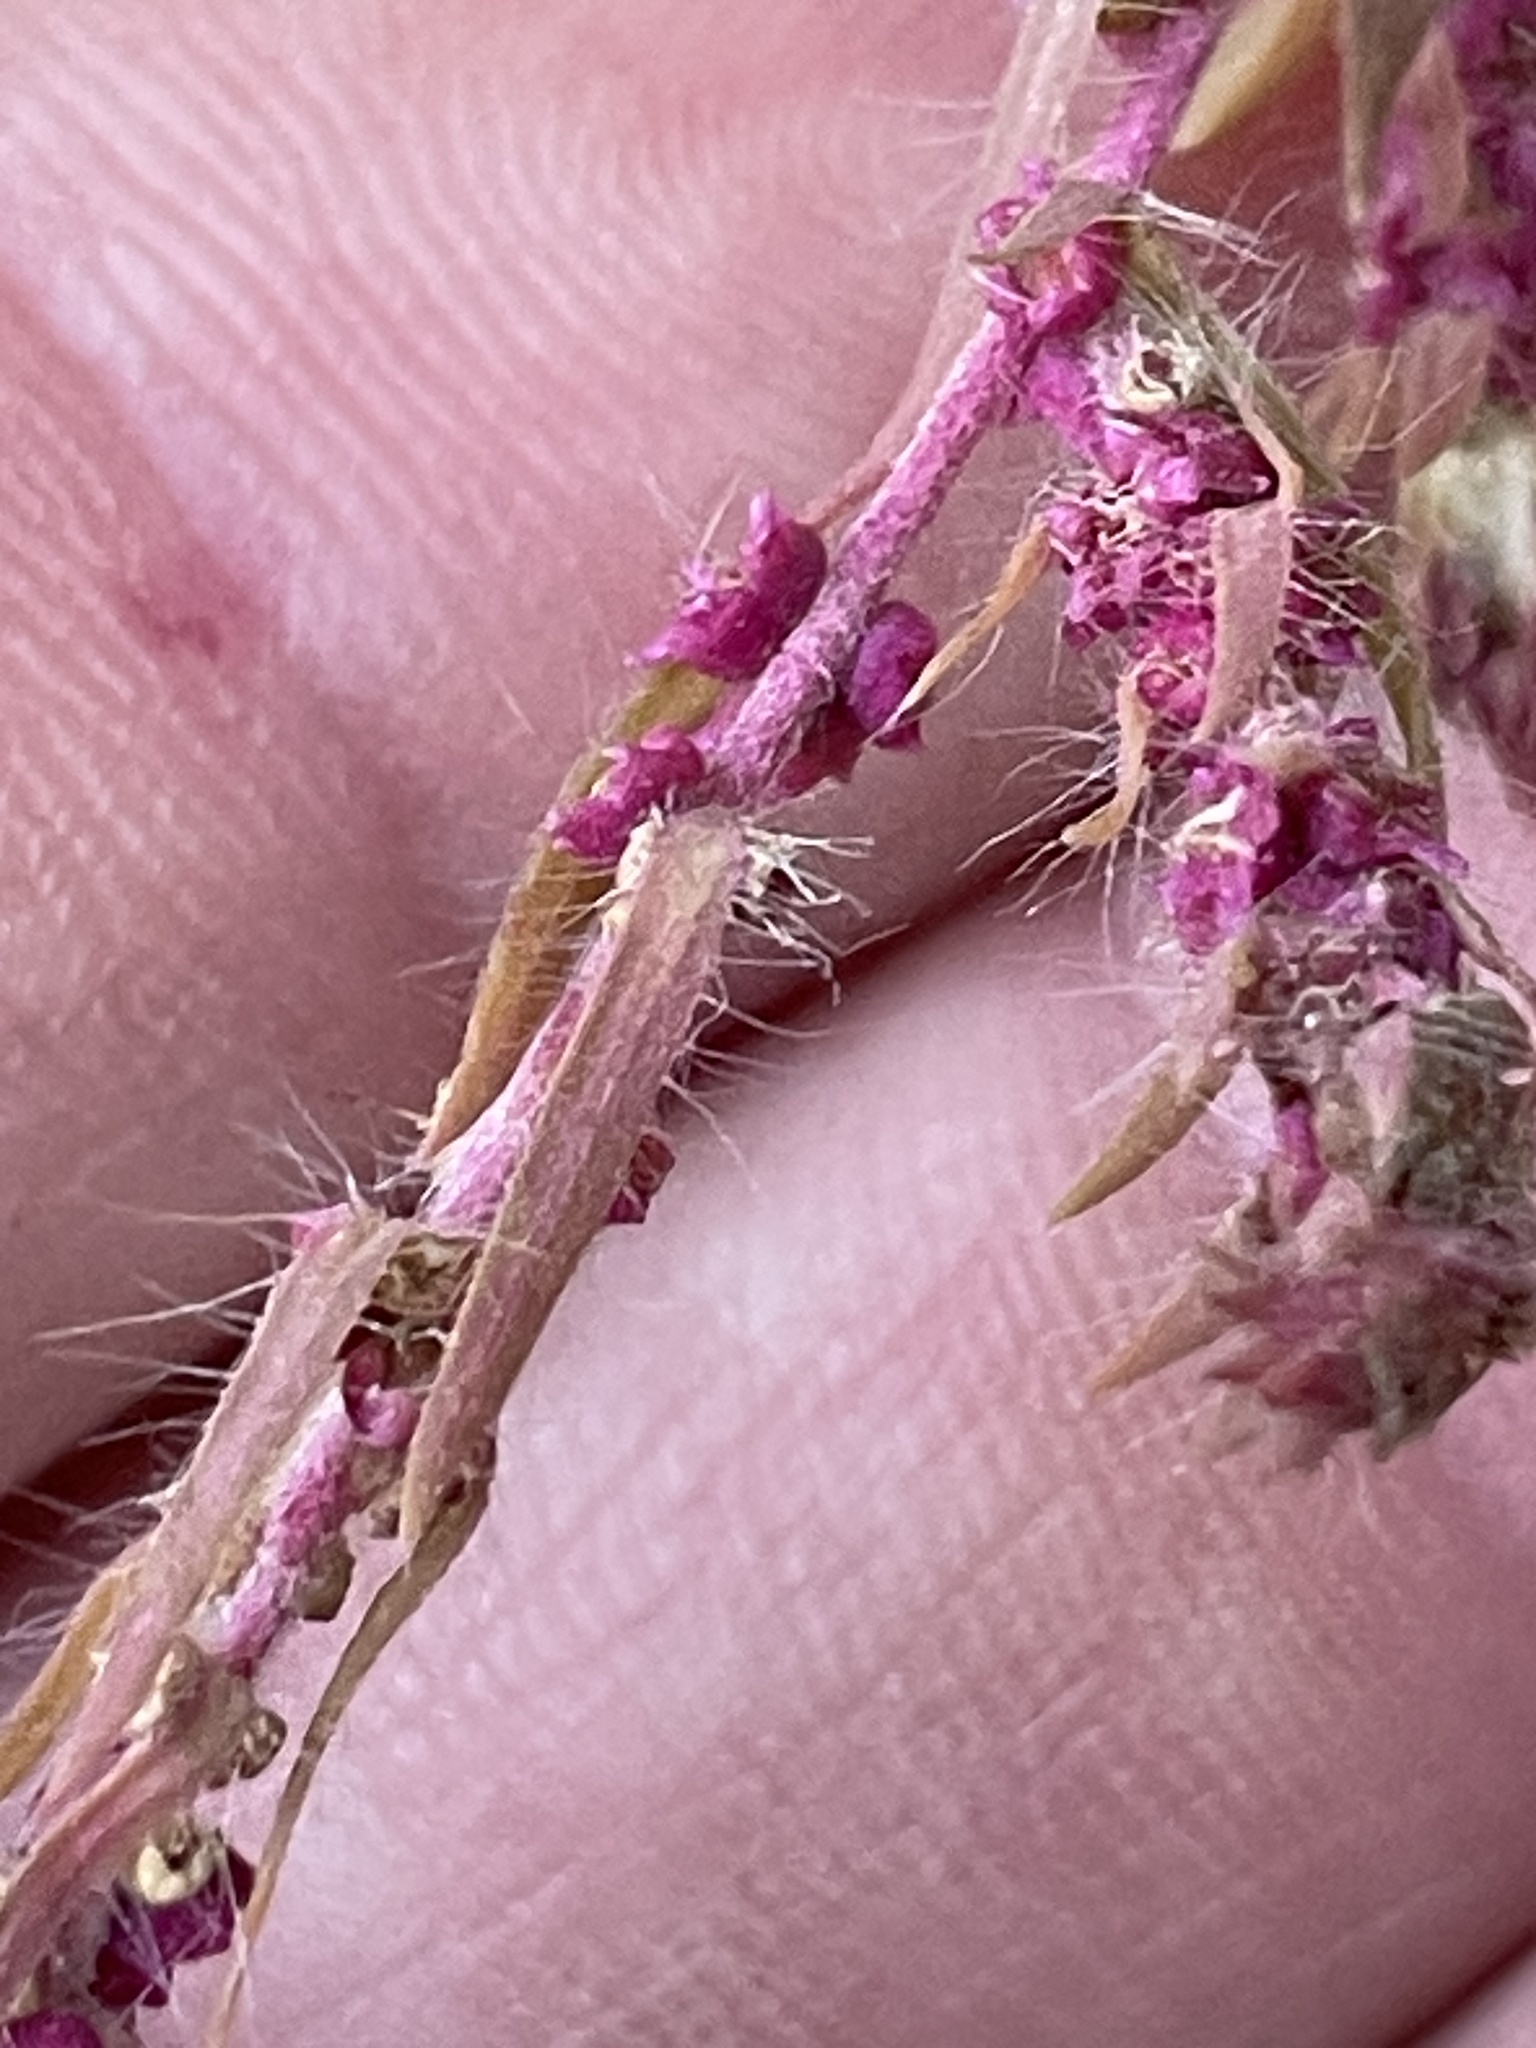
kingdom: Plantae
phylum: Tracheophyta
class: Magnoliopsida
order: Caryophyllales
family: Amaranthaceae
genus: Bassia
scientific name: Bassia scoparia
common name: Belvedere
